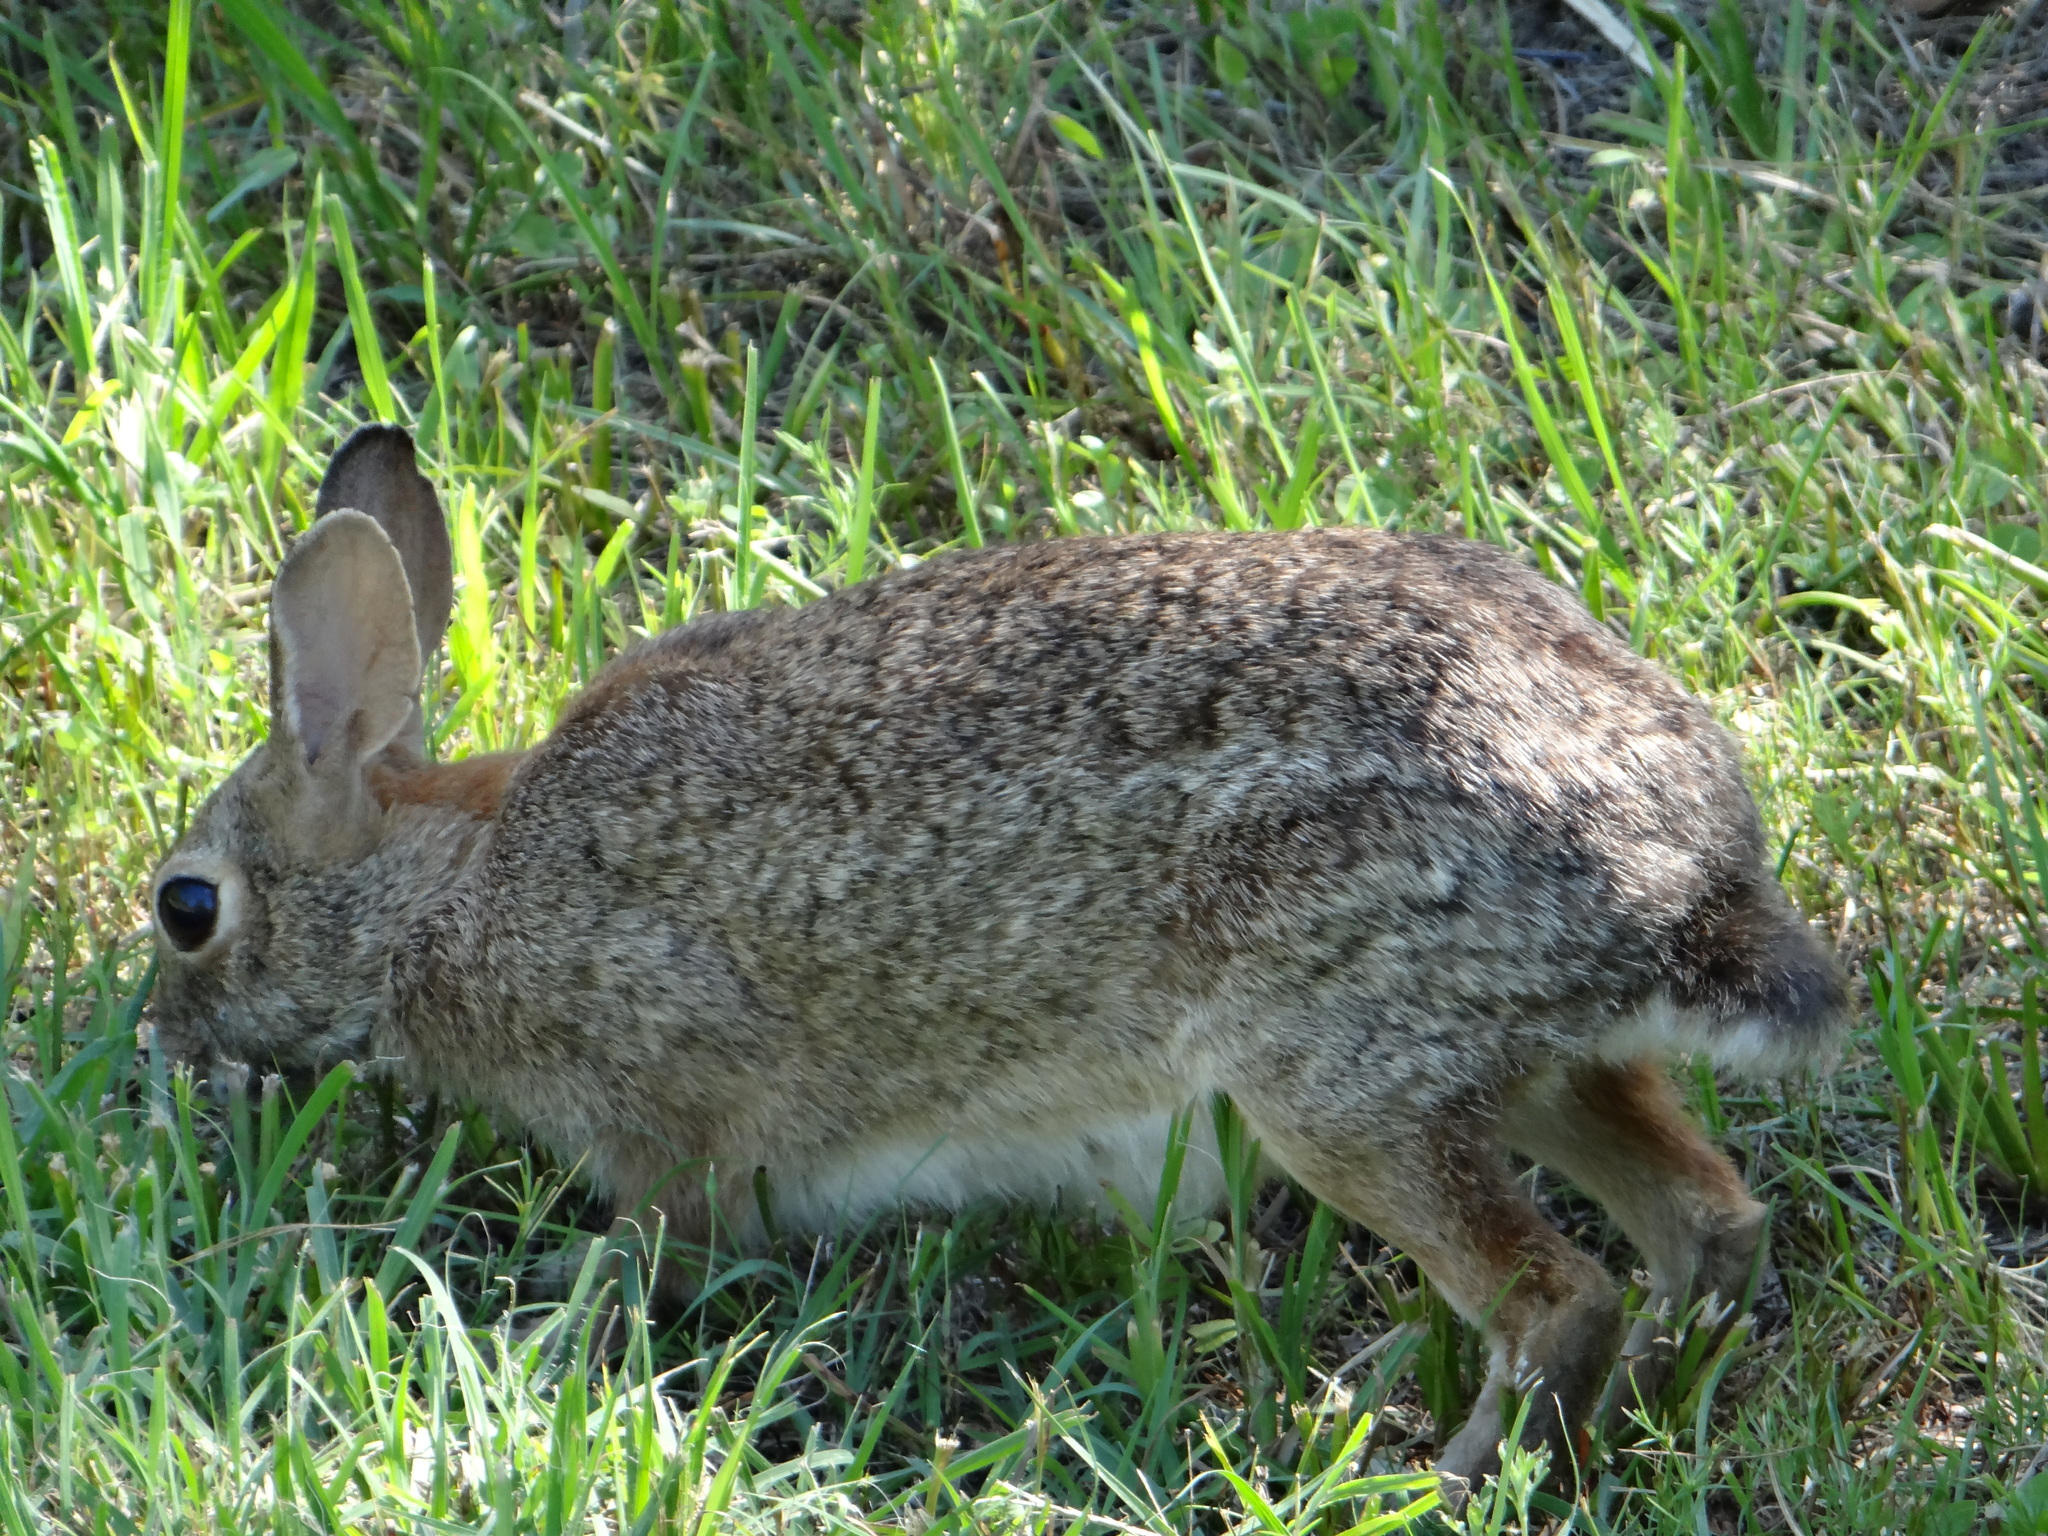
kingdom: Animalia
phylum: Chordata
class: Mammalia
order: Lagomorpha
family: Leporidae
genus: Sylvilagus
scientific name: Sylvilagus floridanus
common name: Eastern cottontail
